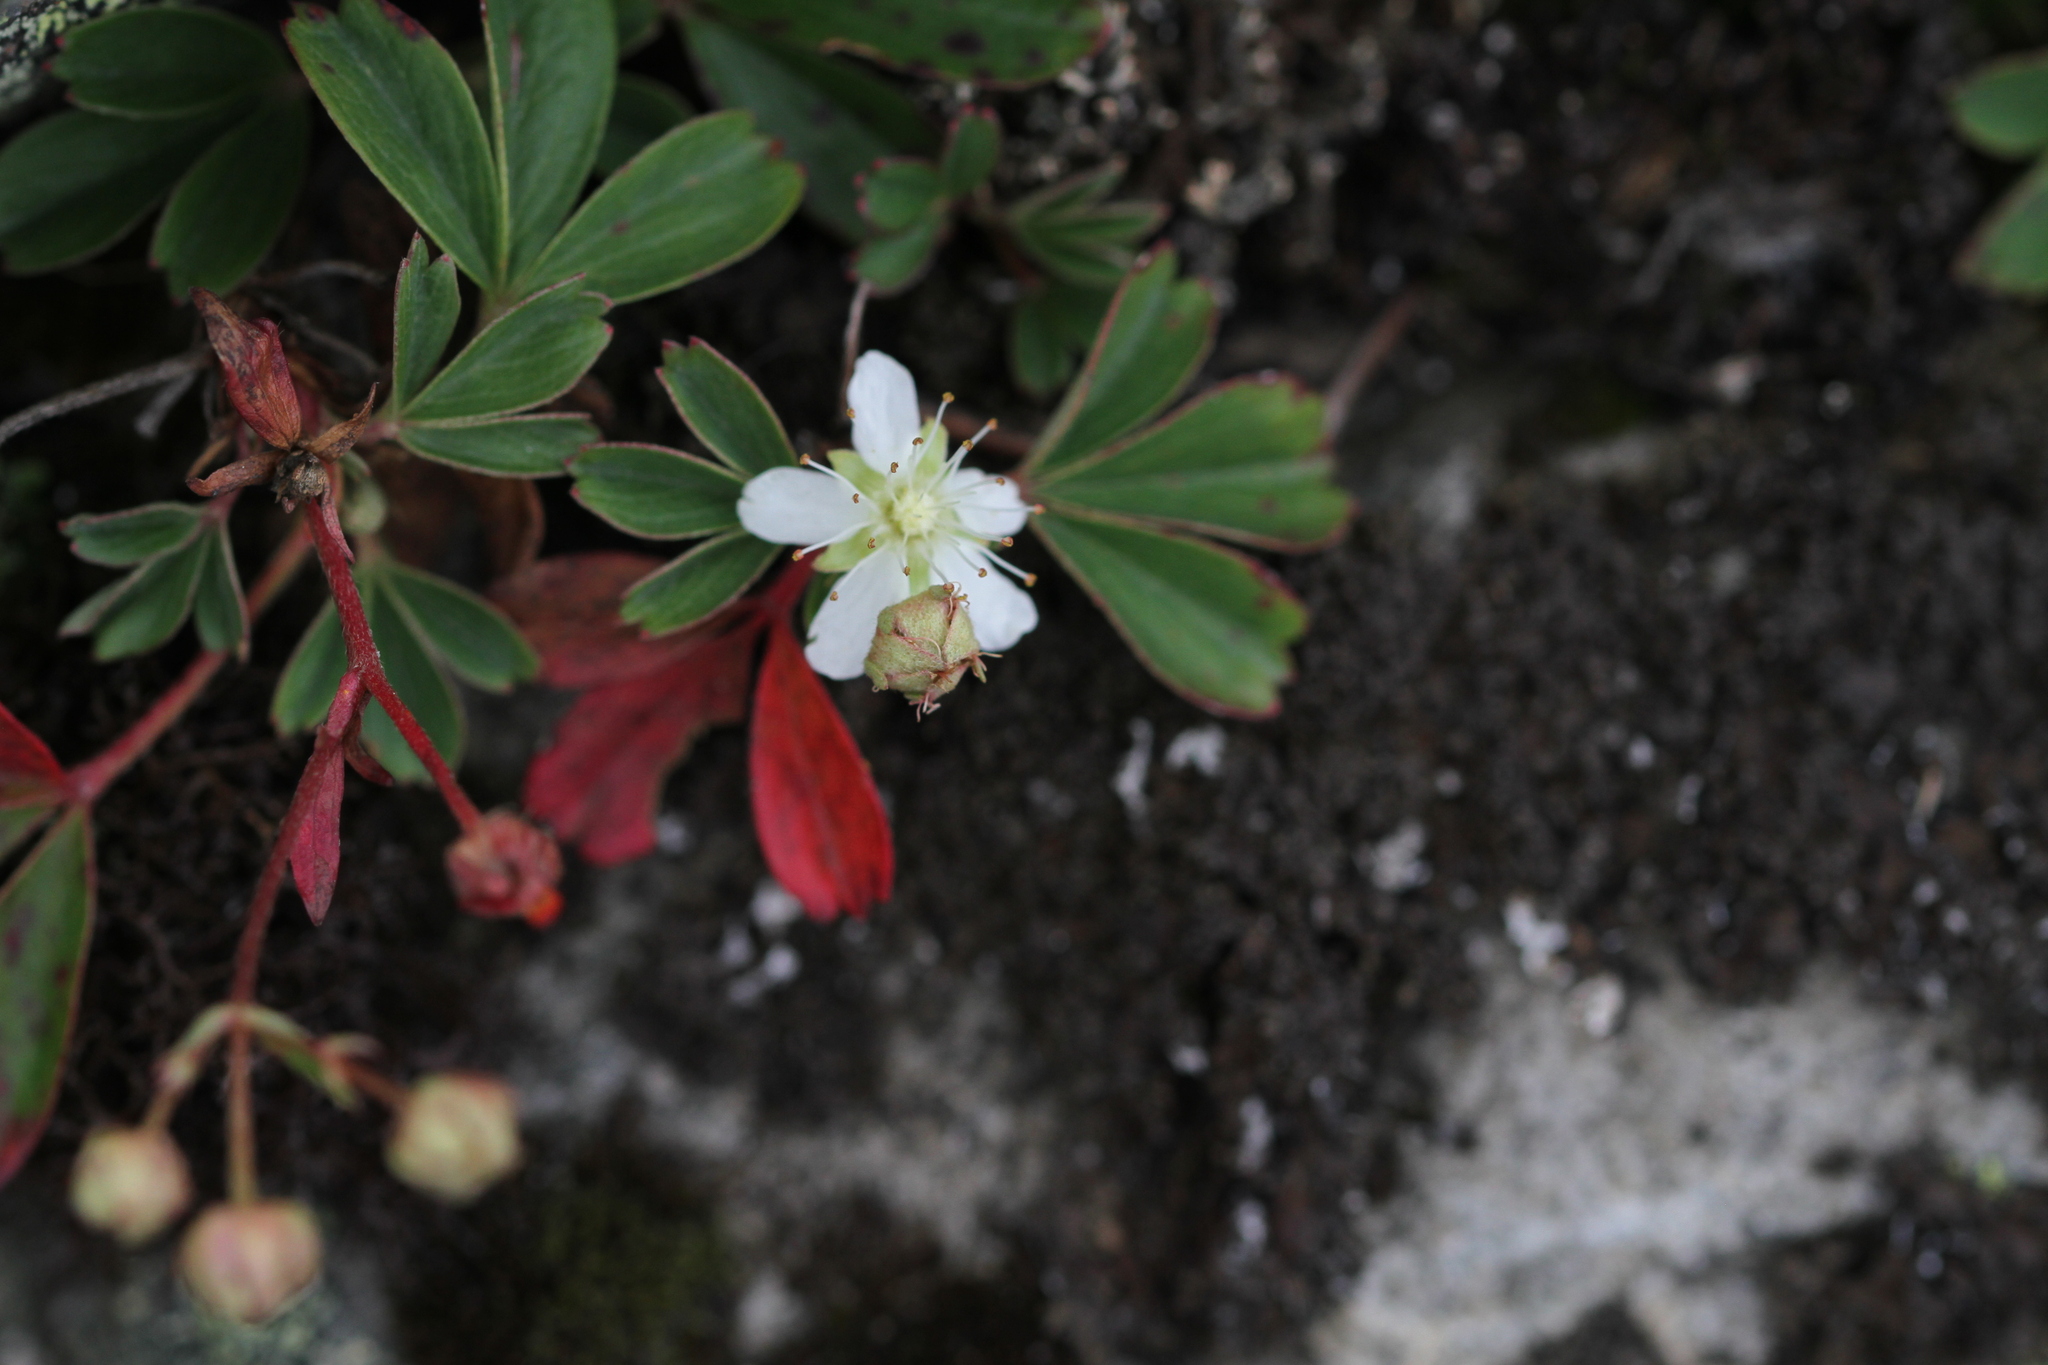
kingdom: Plantae
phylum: Tracheophyta
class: Magnoliopsida
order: Rosales
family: Rosaceae
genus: Sibbaldia
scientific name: Sibbaldia tridentata
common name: Three-toothed cinquefoil
